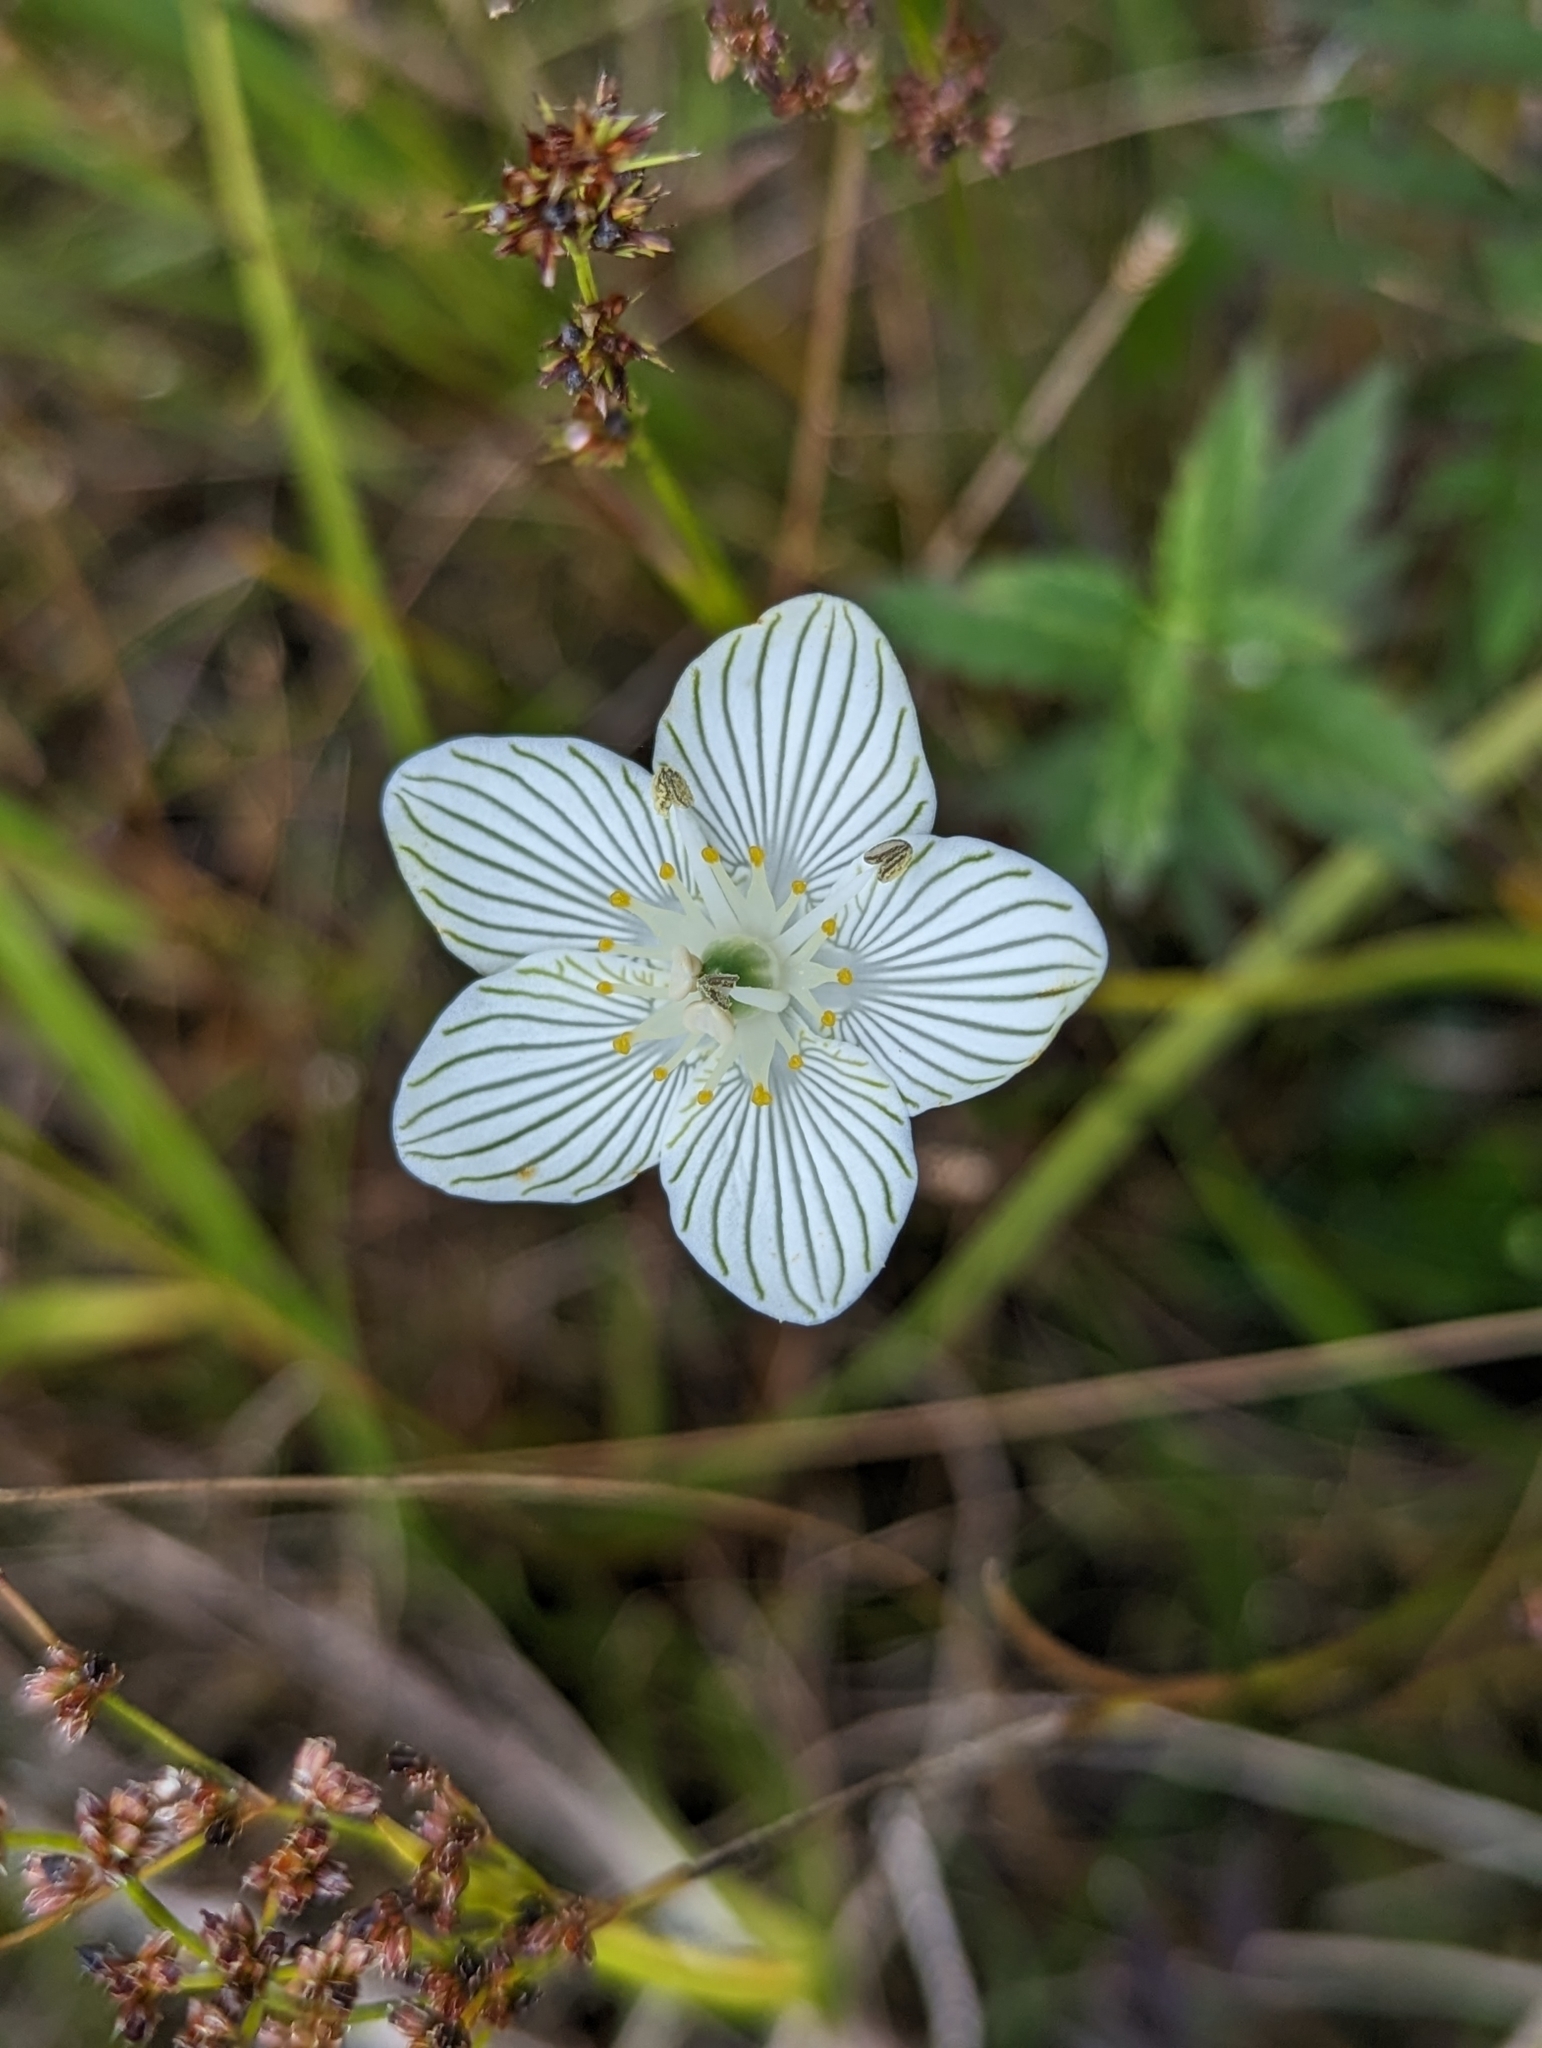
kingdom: Plantae
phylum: Tracheophyta
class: Magnoliopsida
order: Celastrales
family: Parnassiaceae
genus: Parnassia
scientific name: Parnassia glauca
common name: American grass-of-parnassus
